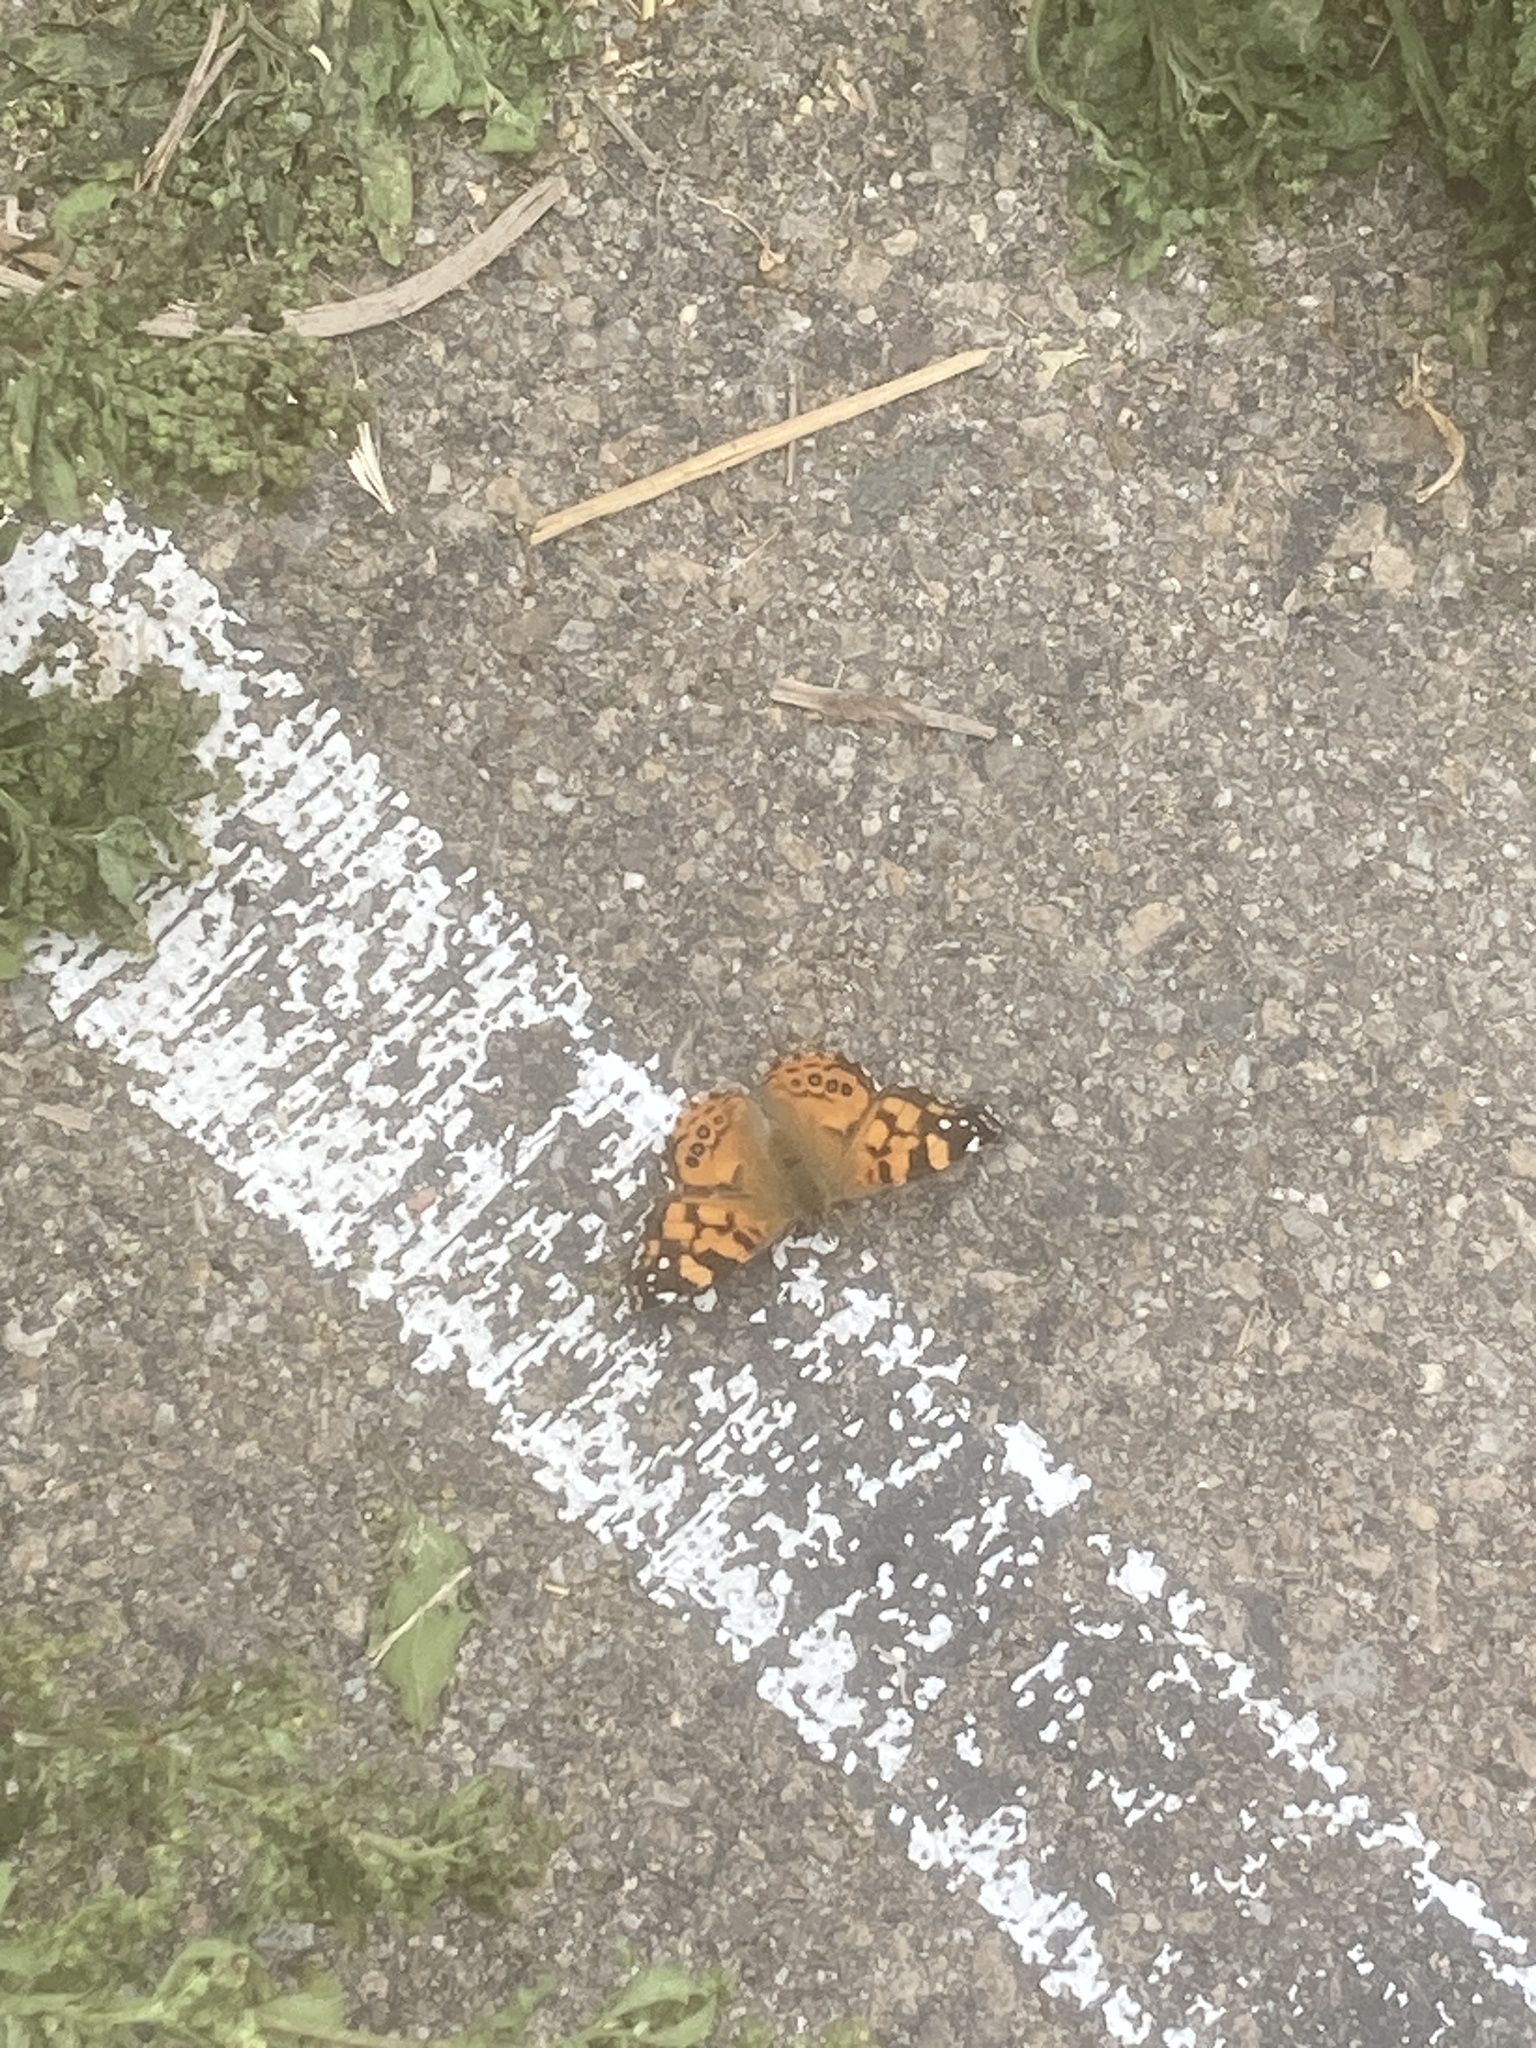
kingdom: Animalia
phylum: Arthropoda
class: Insecta
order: Lepidoptera
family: Nymphalidae
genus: Vanessa
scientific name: Vanessa annabella
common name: West coast lady
